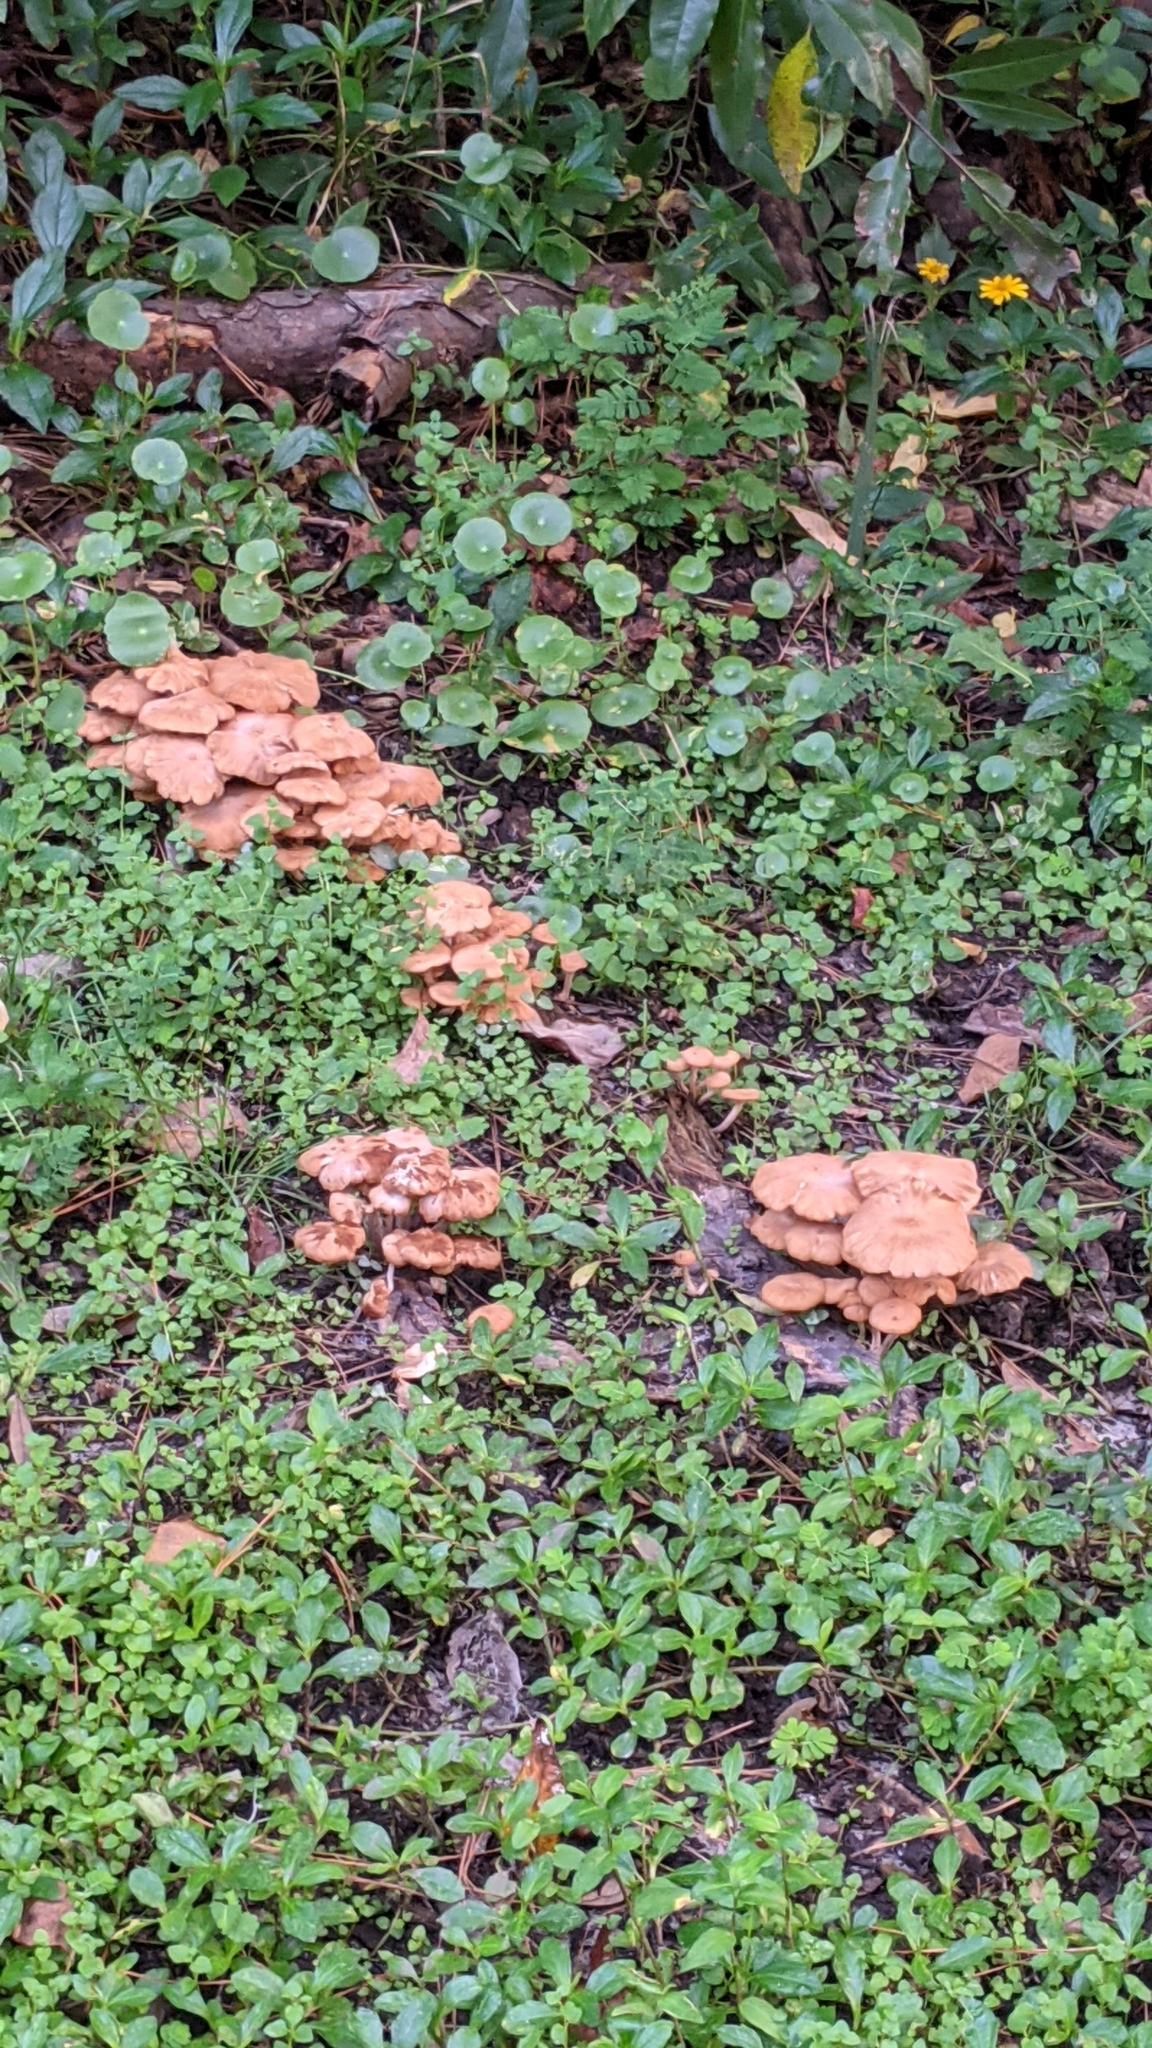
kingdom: Fungi
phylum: Basidiomycota
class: Agaricomycetes
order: Agaricales
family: Physalacriaceae
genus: Desarmillaria
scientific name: Desarmillaria caespitosa
